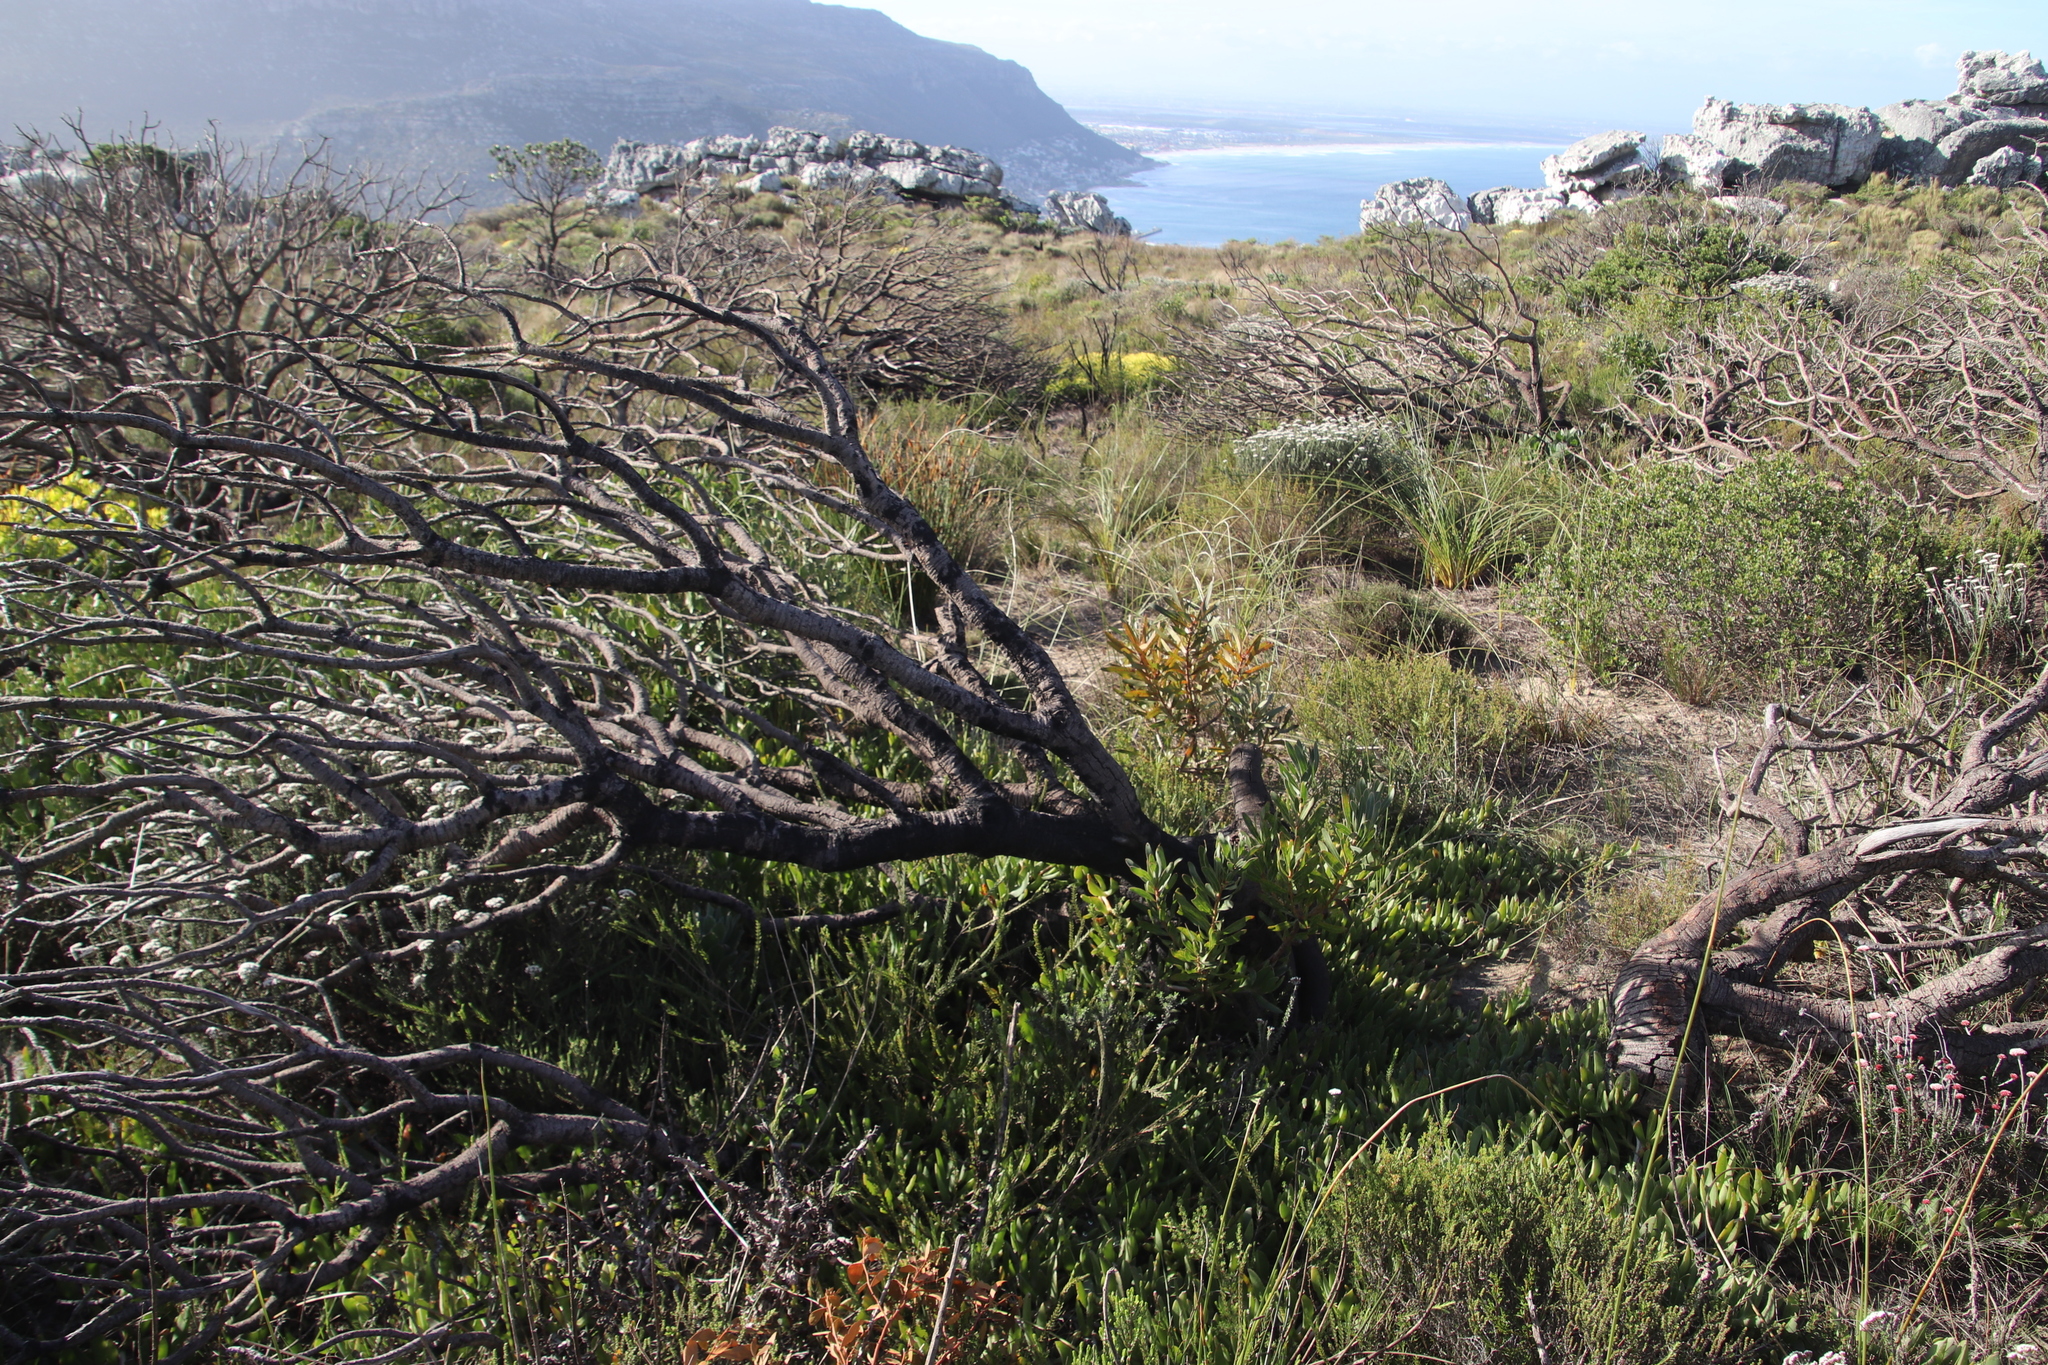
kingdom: Plantae
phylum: Tracheophyta
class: Magnoliopsida
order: Proteales
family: Proteaceae
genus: Protea
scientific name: Protea lepidocarpodendron
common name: Black-bearded protea
